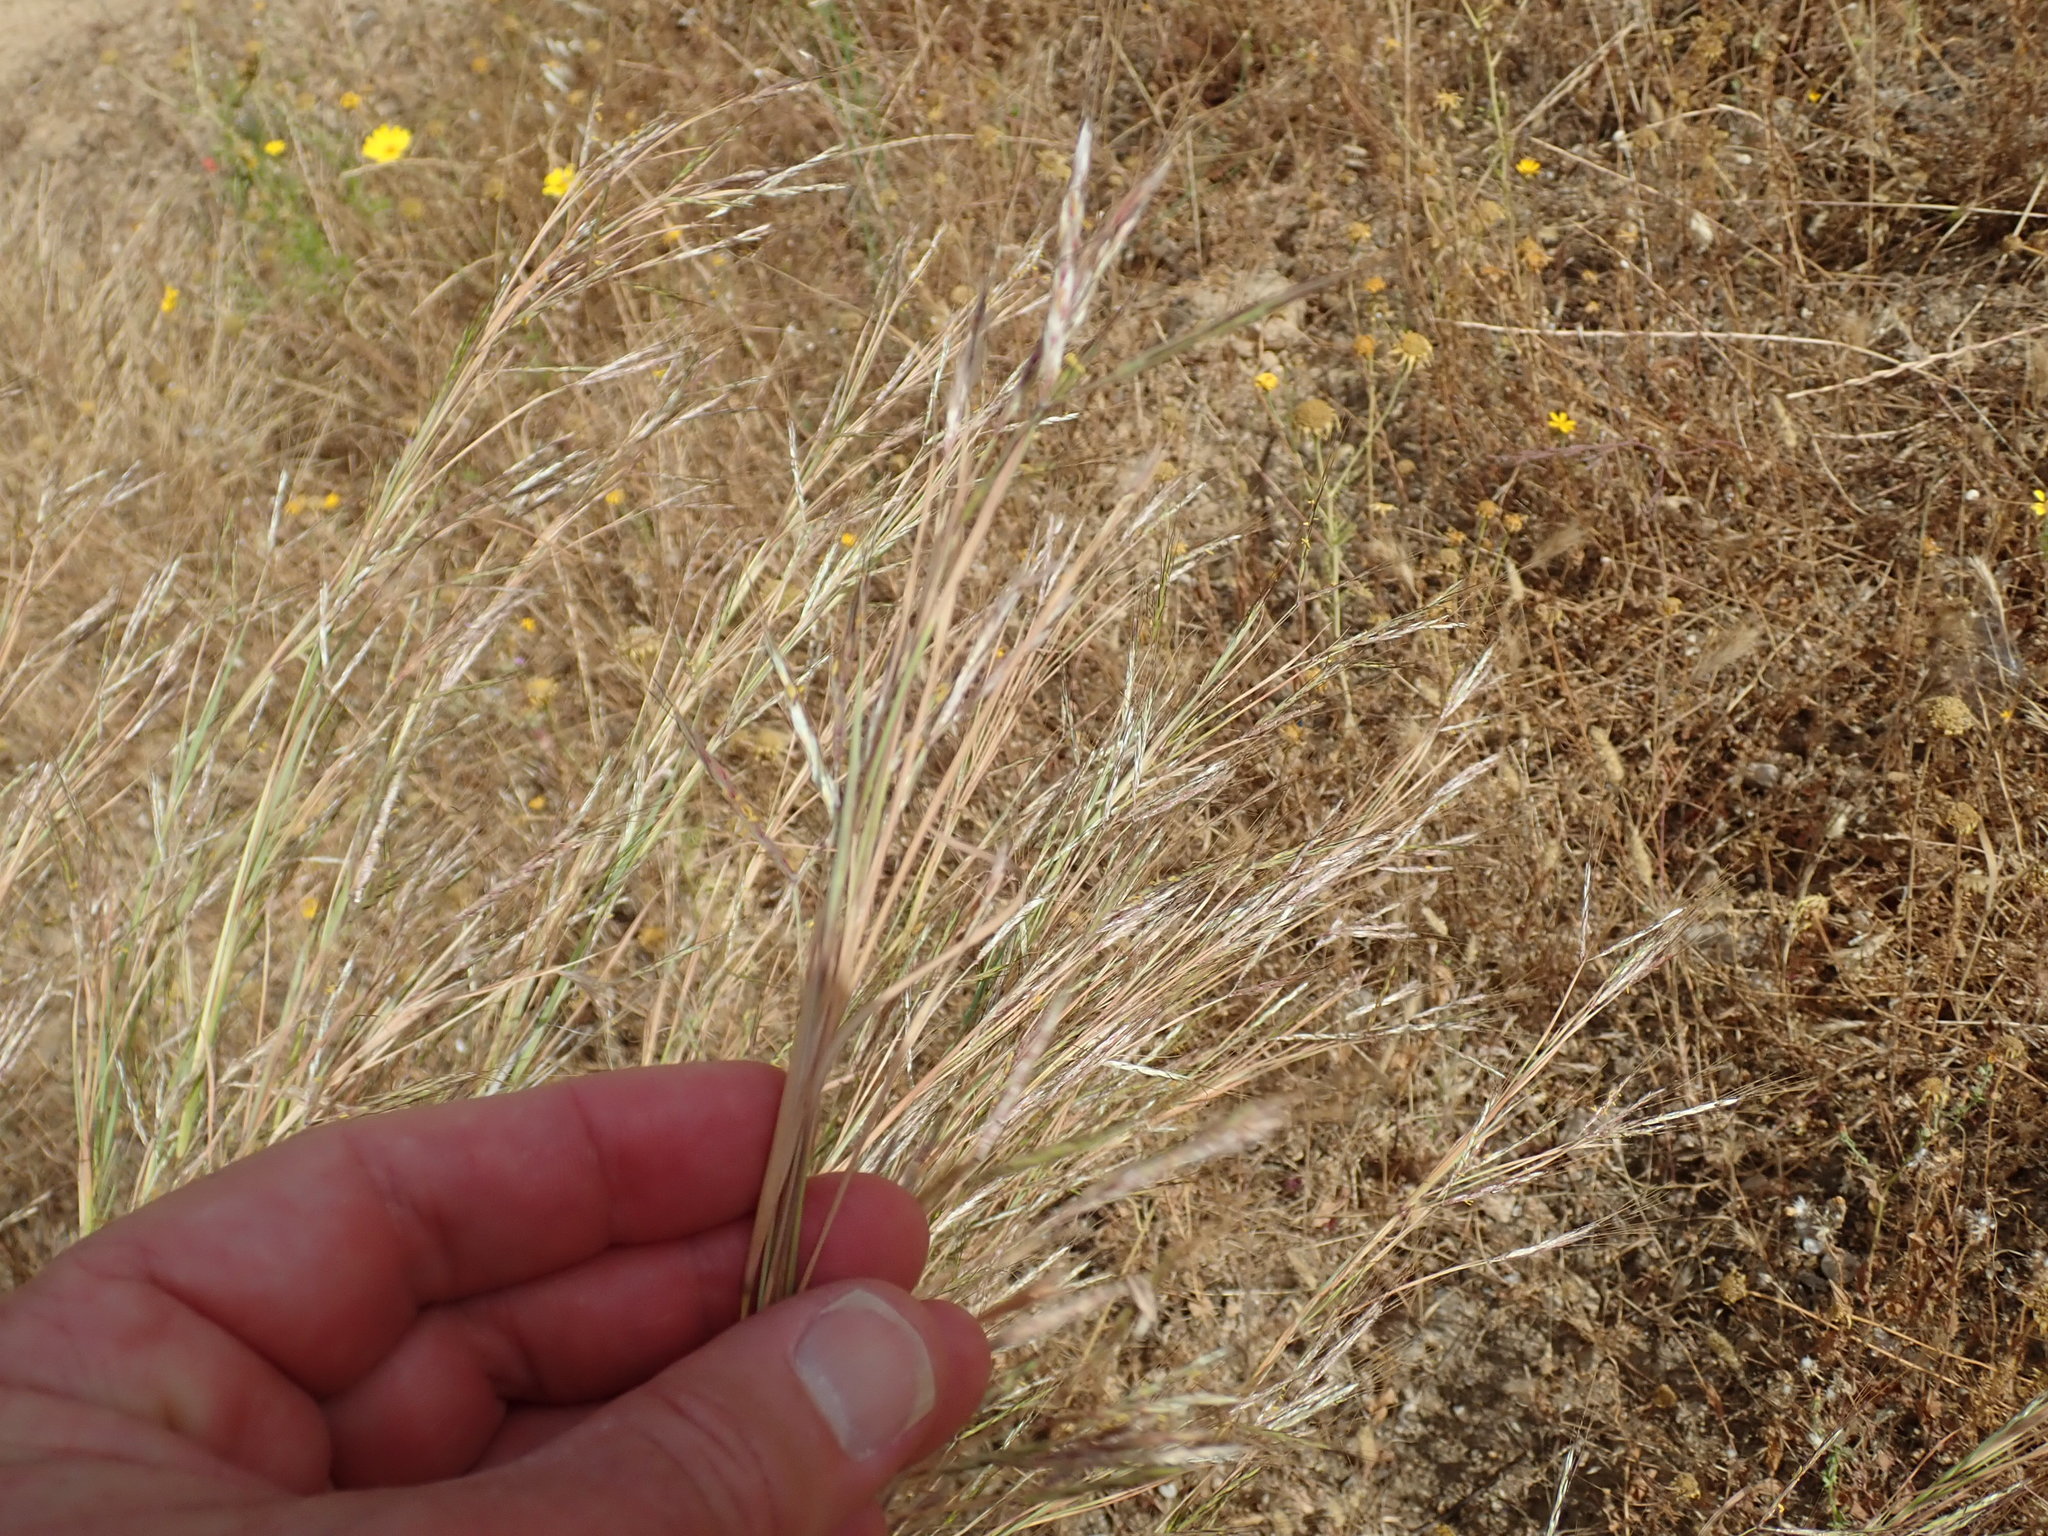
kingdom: Plantae
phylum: Tracheophyta
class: Liliopsida
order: Poales
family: Poaceae
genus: Hyparrhenia
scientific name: Hyparrhenia hirta
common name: Thatching grass
